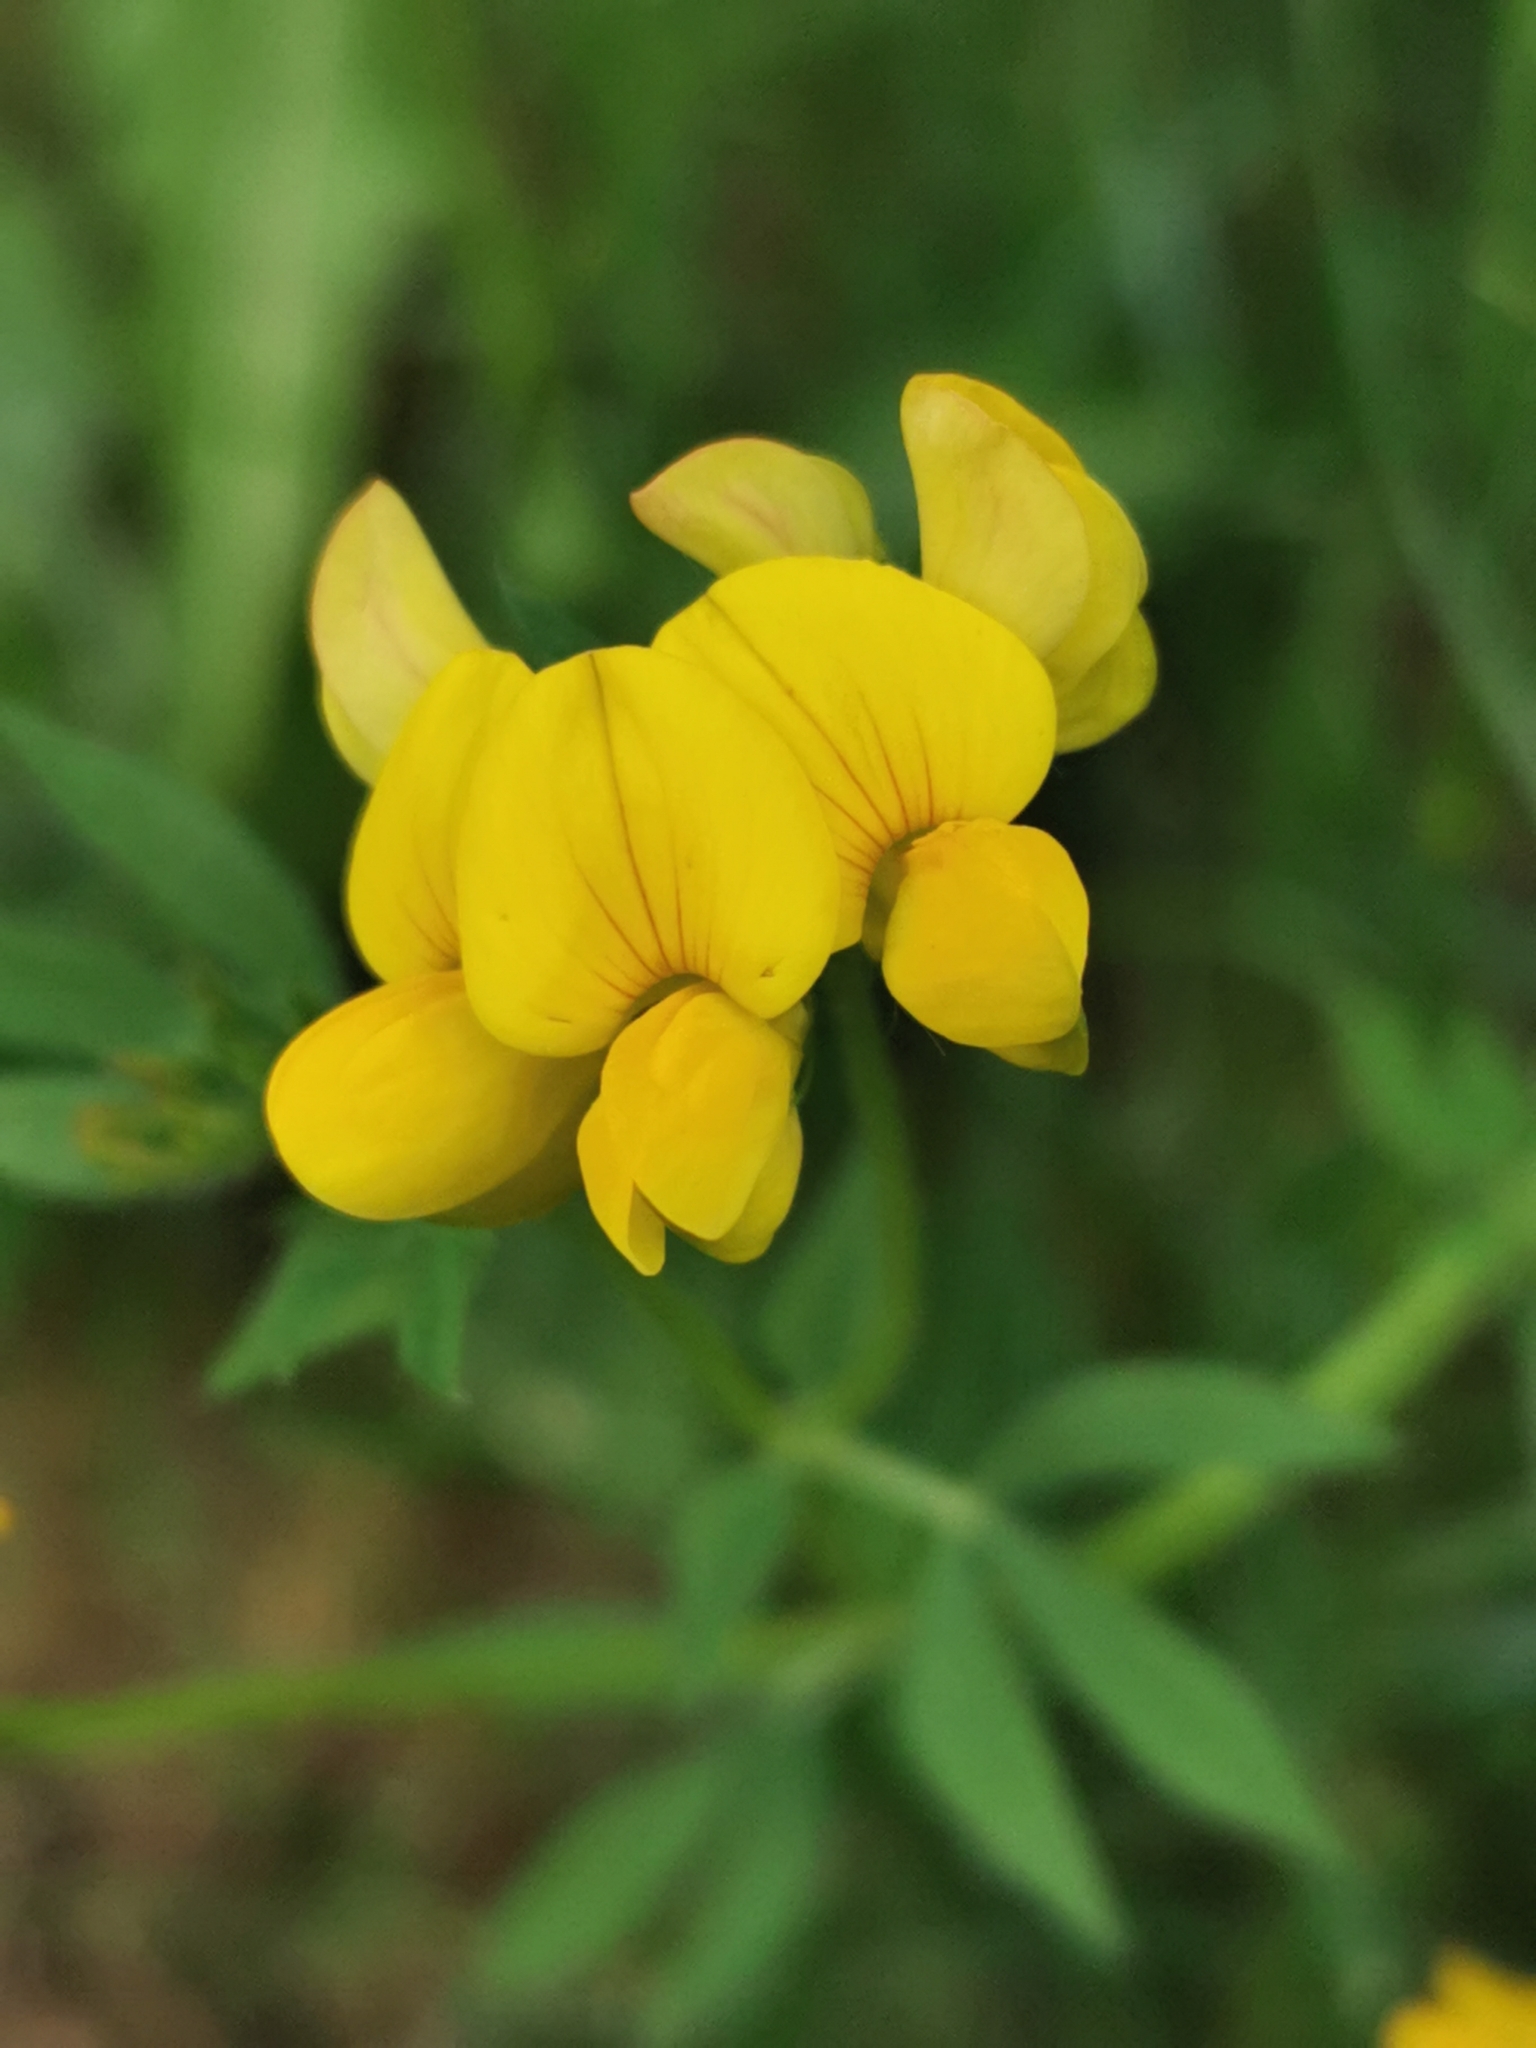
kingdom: Plantae
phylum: Tracheophyta
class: Magnoliopsida
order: Fabales
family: Fabaceae
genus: Lotus
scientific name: Lotus corniculatus
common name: Common bird's-foot-trefoil
